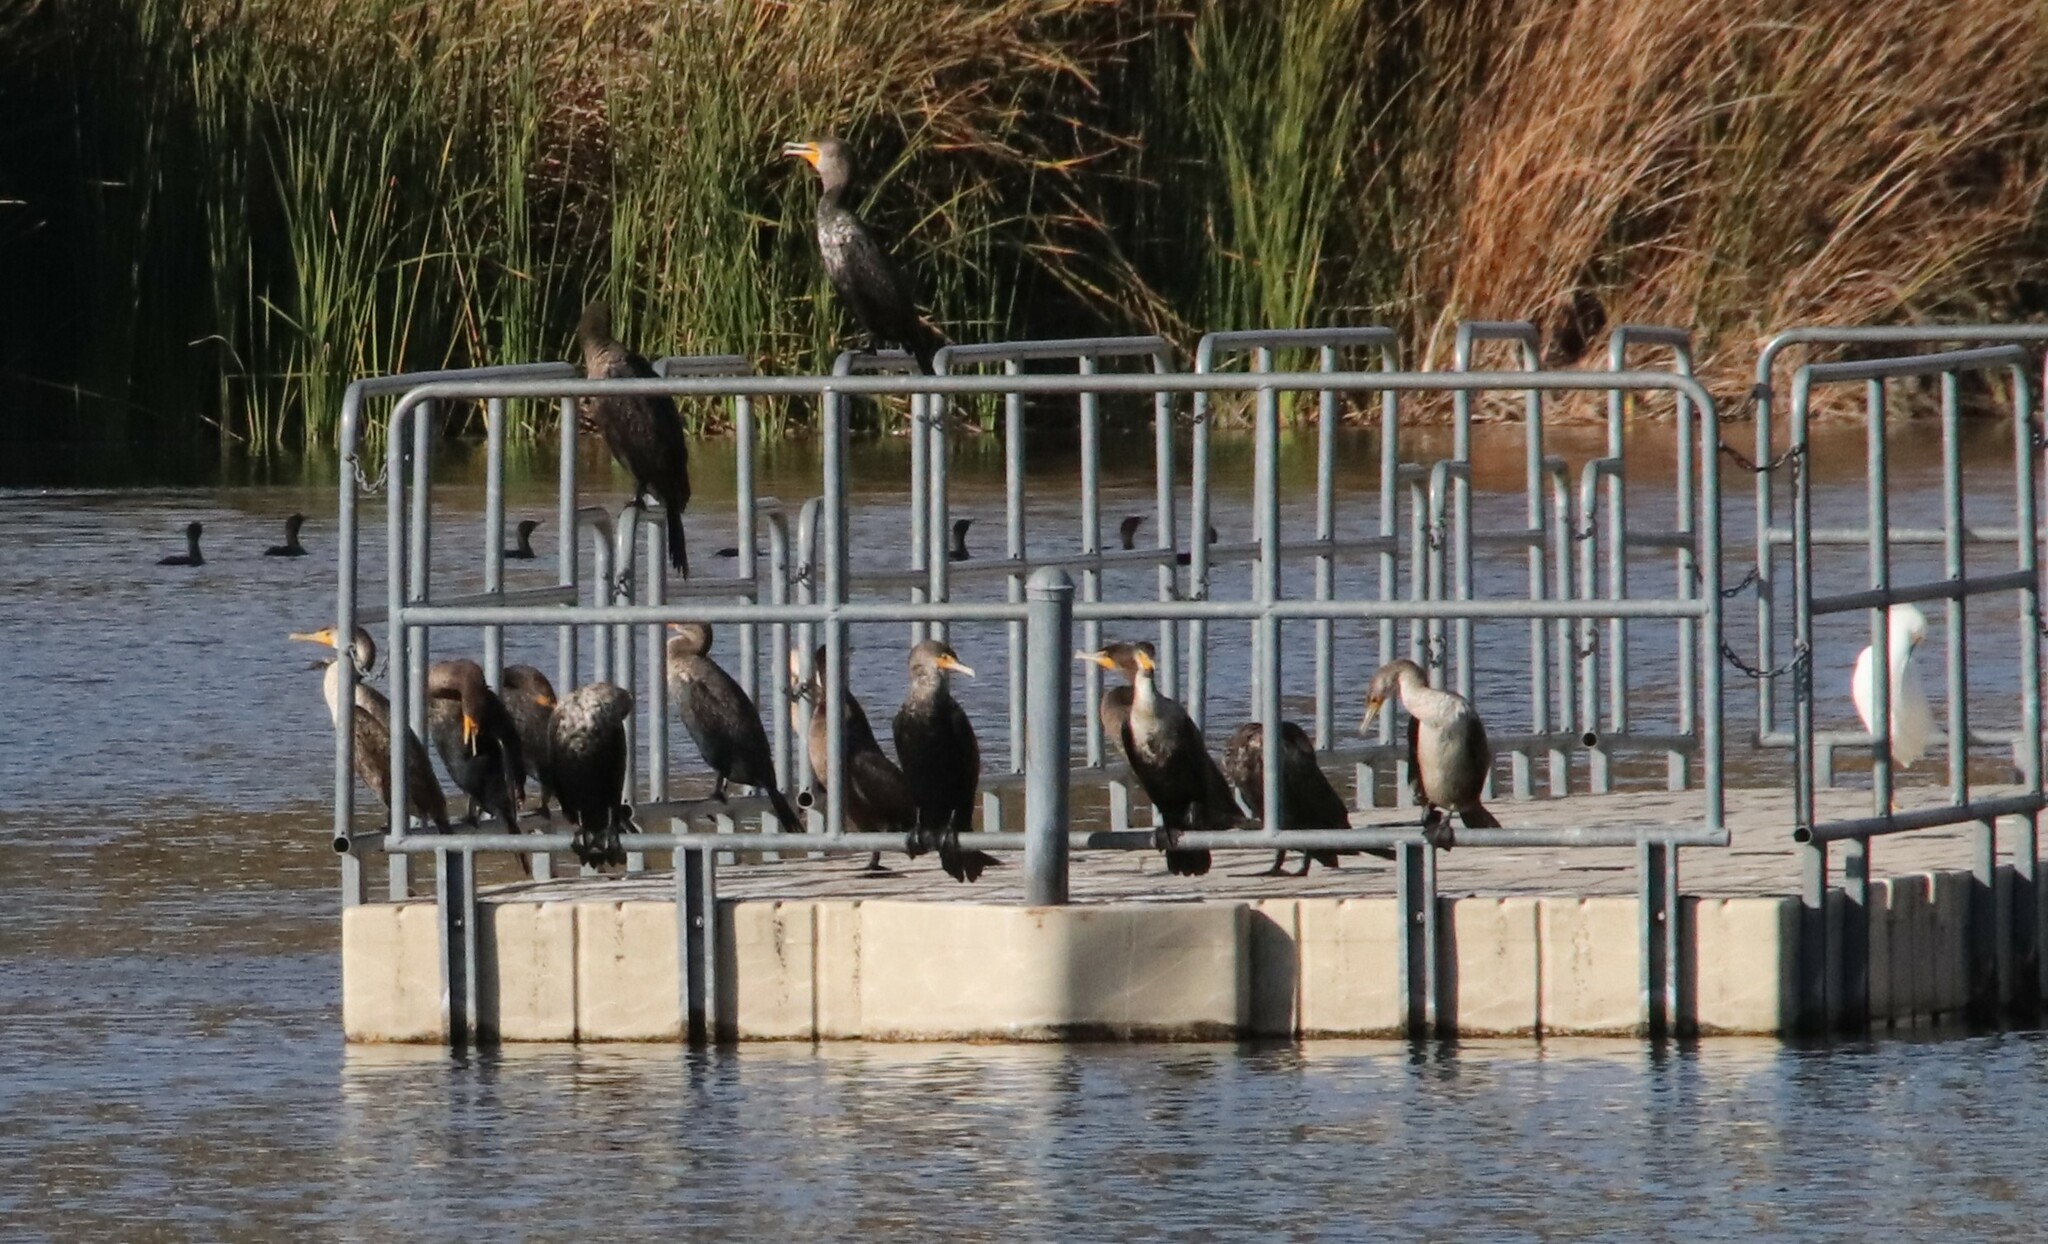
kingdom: Animalia
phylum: Chordata
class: Aves
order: Suliformes
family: Phalacrocoracidae
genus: Phalacrocorax
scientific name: Phalacrocorax auritus
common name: Double-crested cormorant
